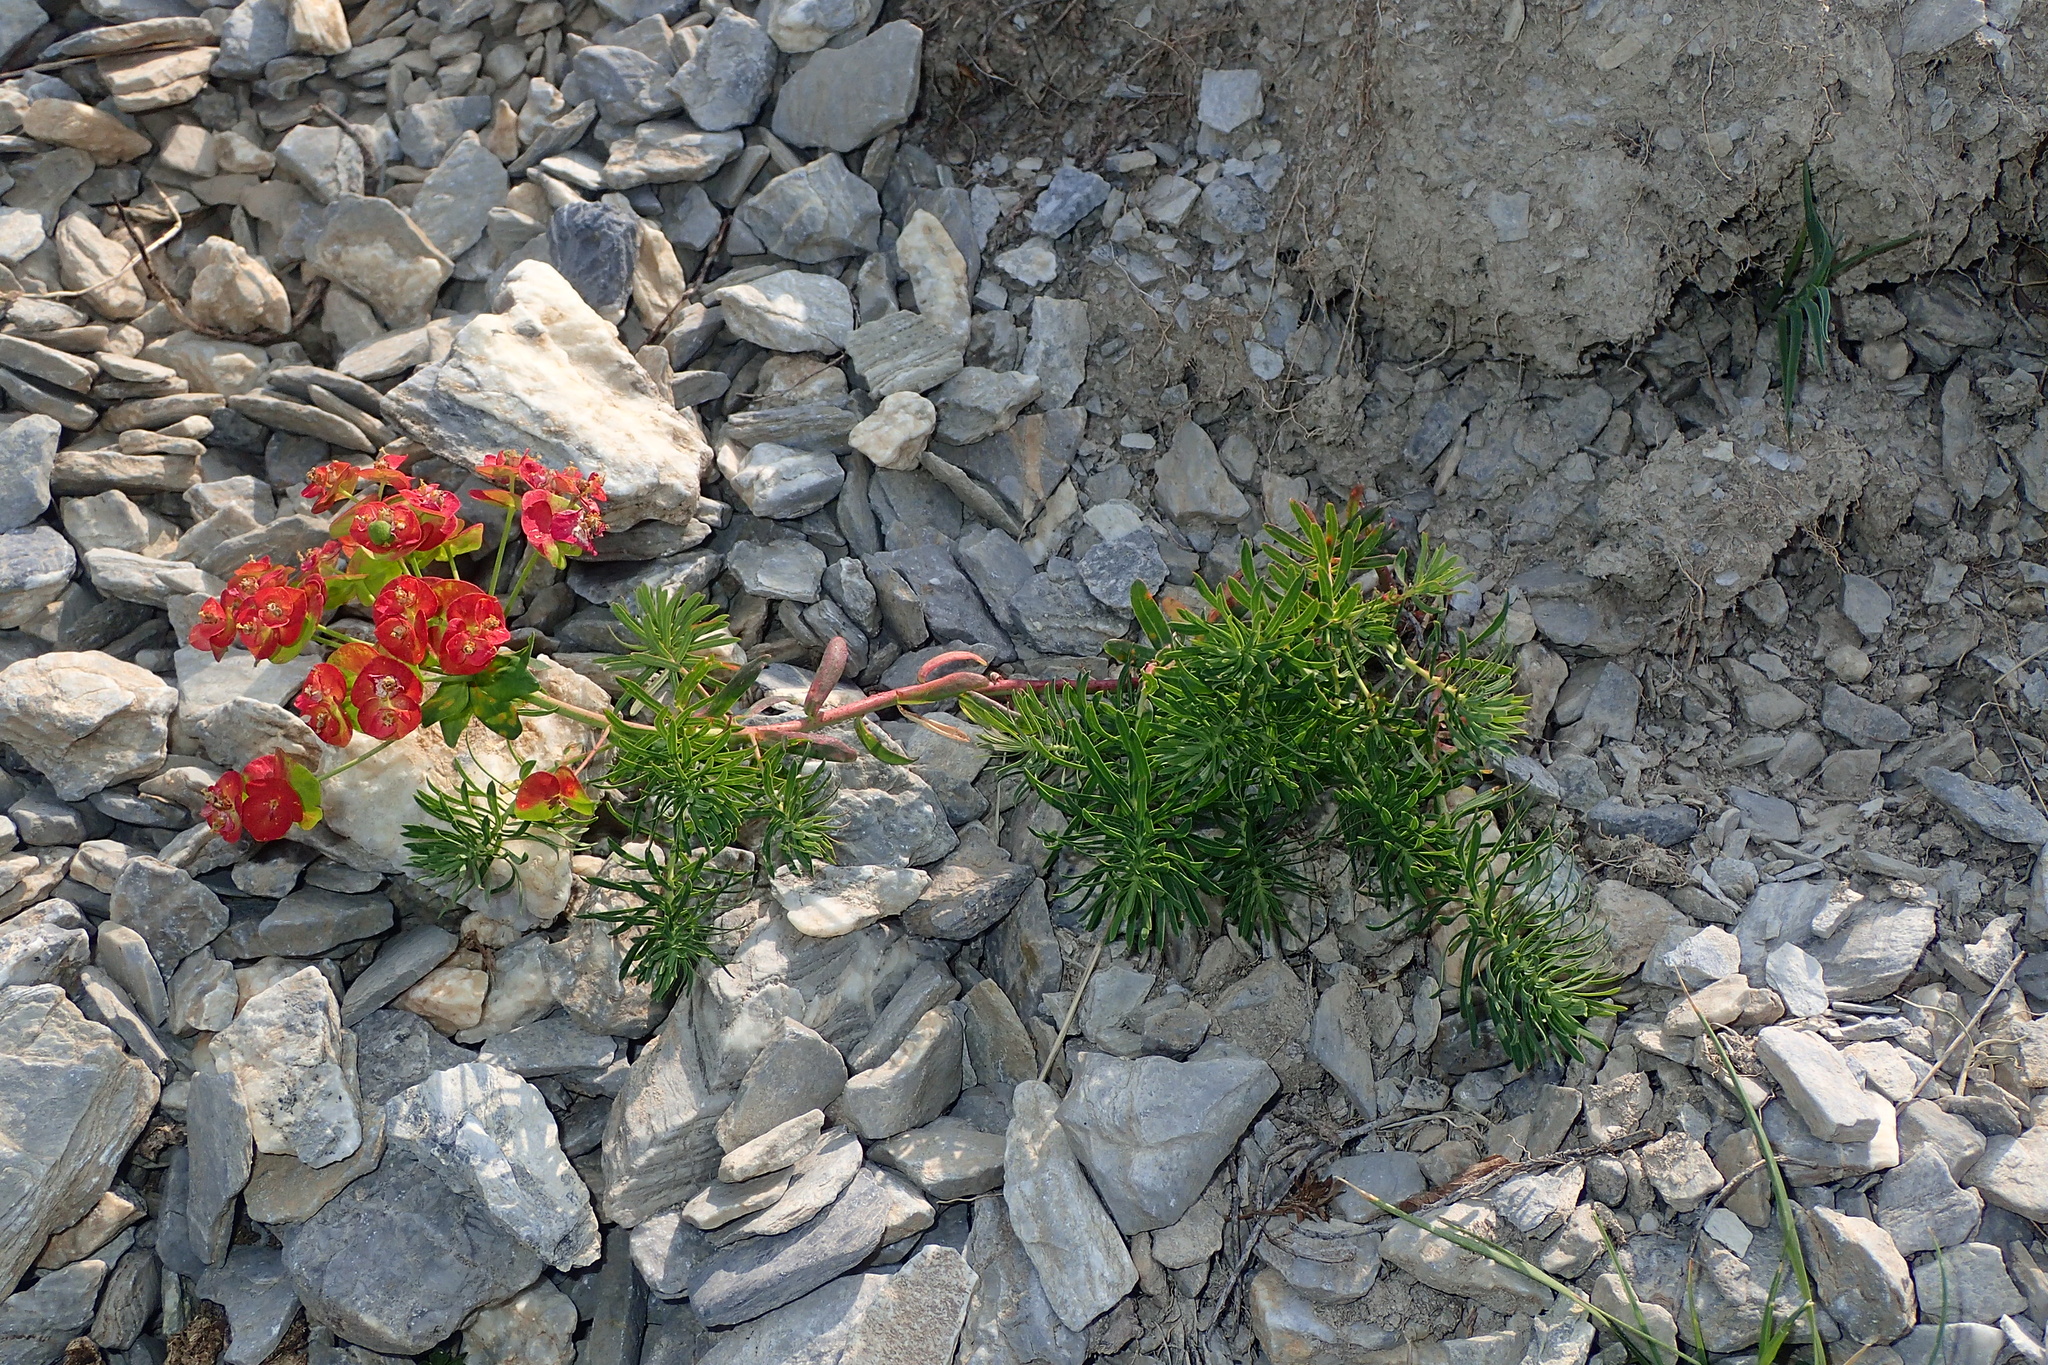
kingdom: Plantae
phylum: Tracheophyta
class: Magnoliopsida
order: Malpighiales
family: Euphorbiaceae
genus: Euphorbia
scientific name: Euphorbia cyparissias
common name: Cypress spurge
